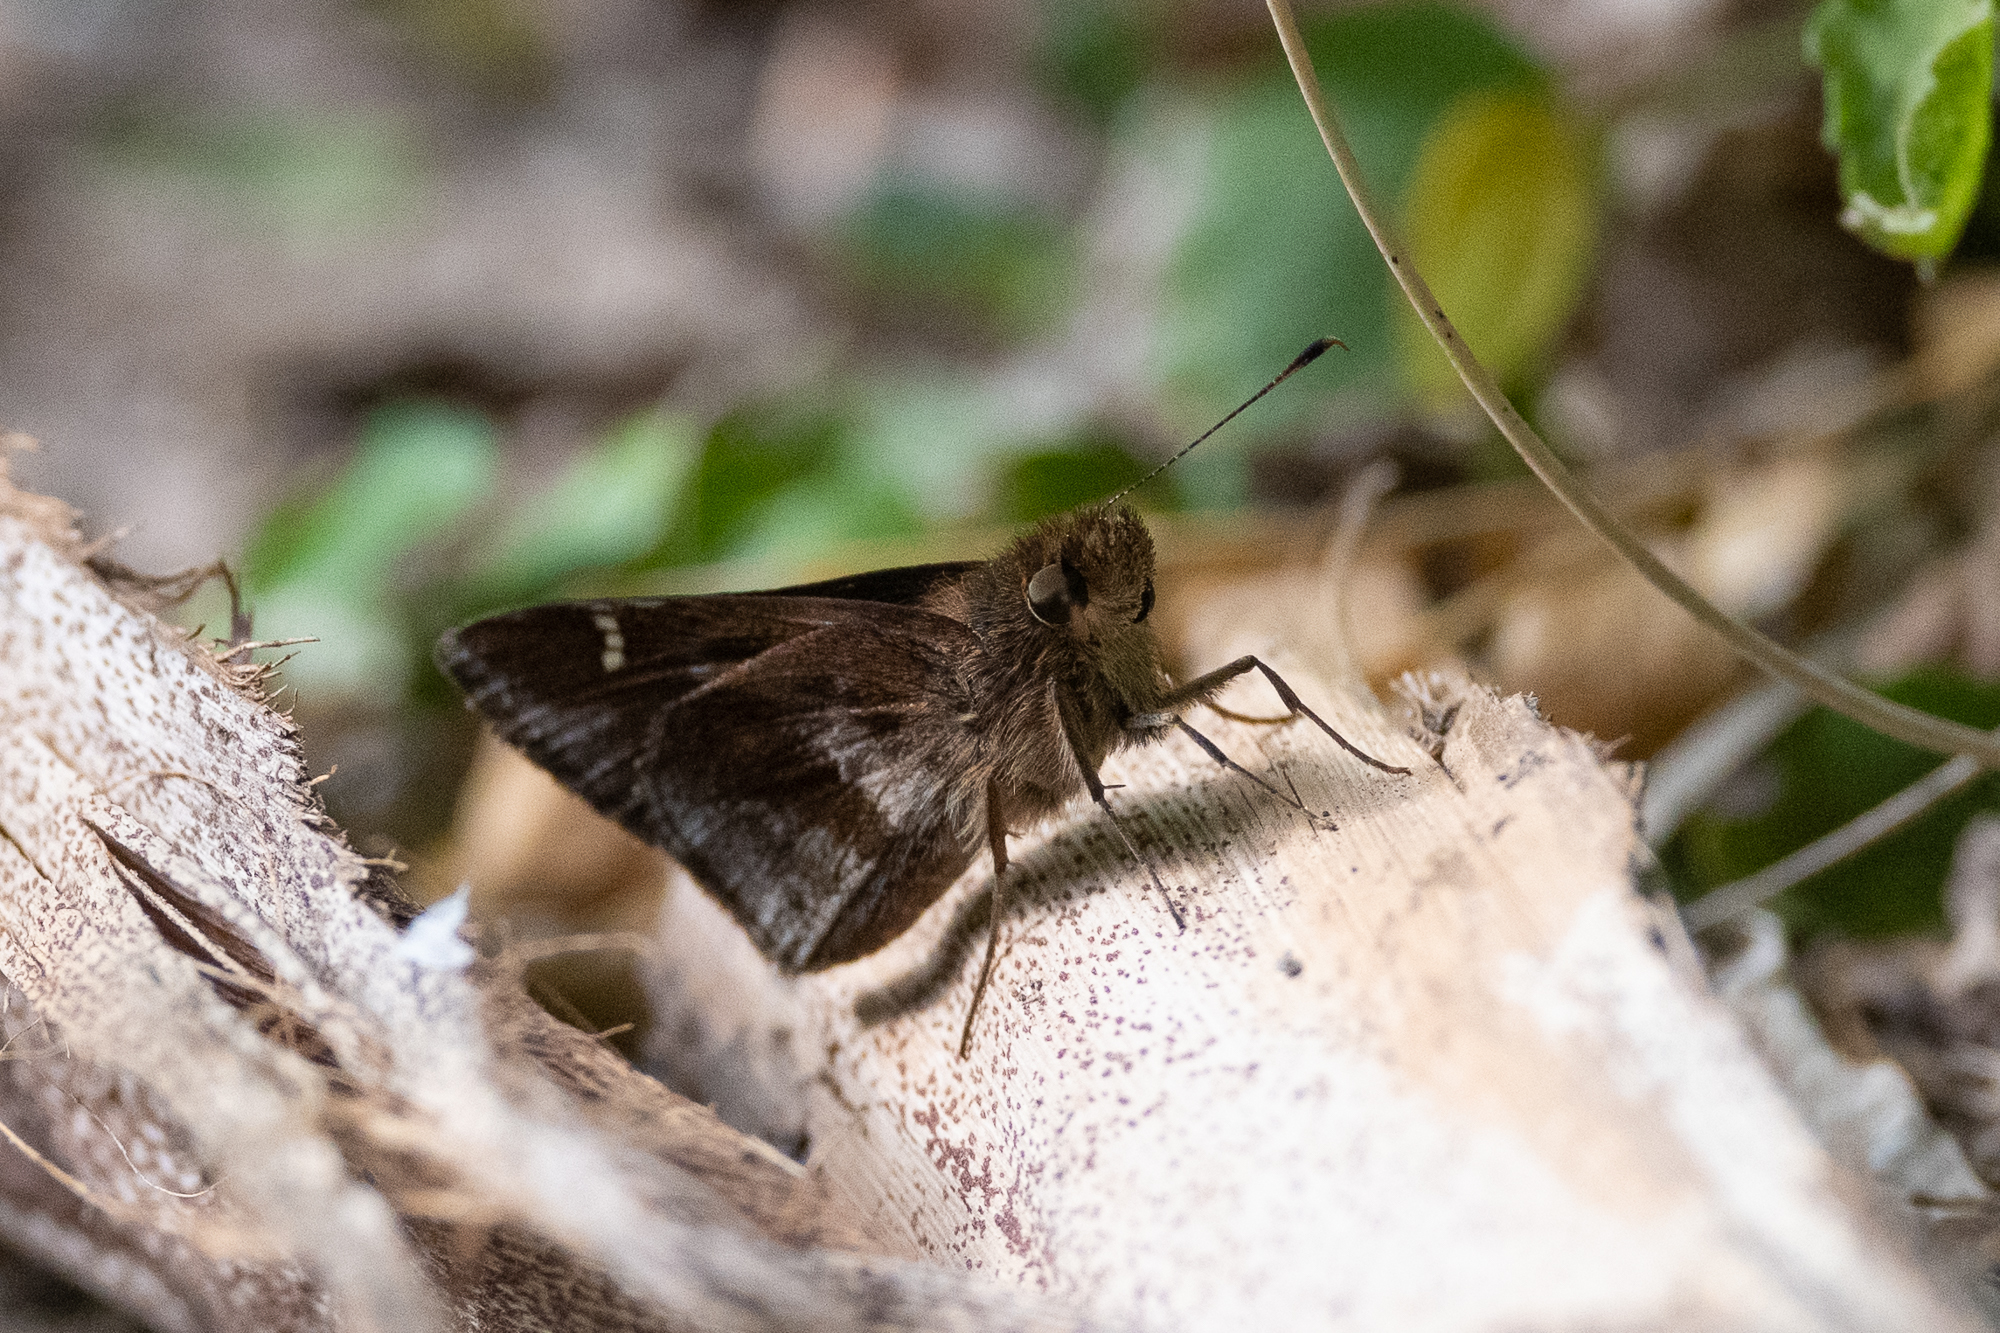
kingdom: Animalia
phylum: Arthropoda
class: Insecta
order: Lepidoptera
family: Hesperiidae
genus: Lerema
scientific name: Lerema accius
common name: Clouded skipper
